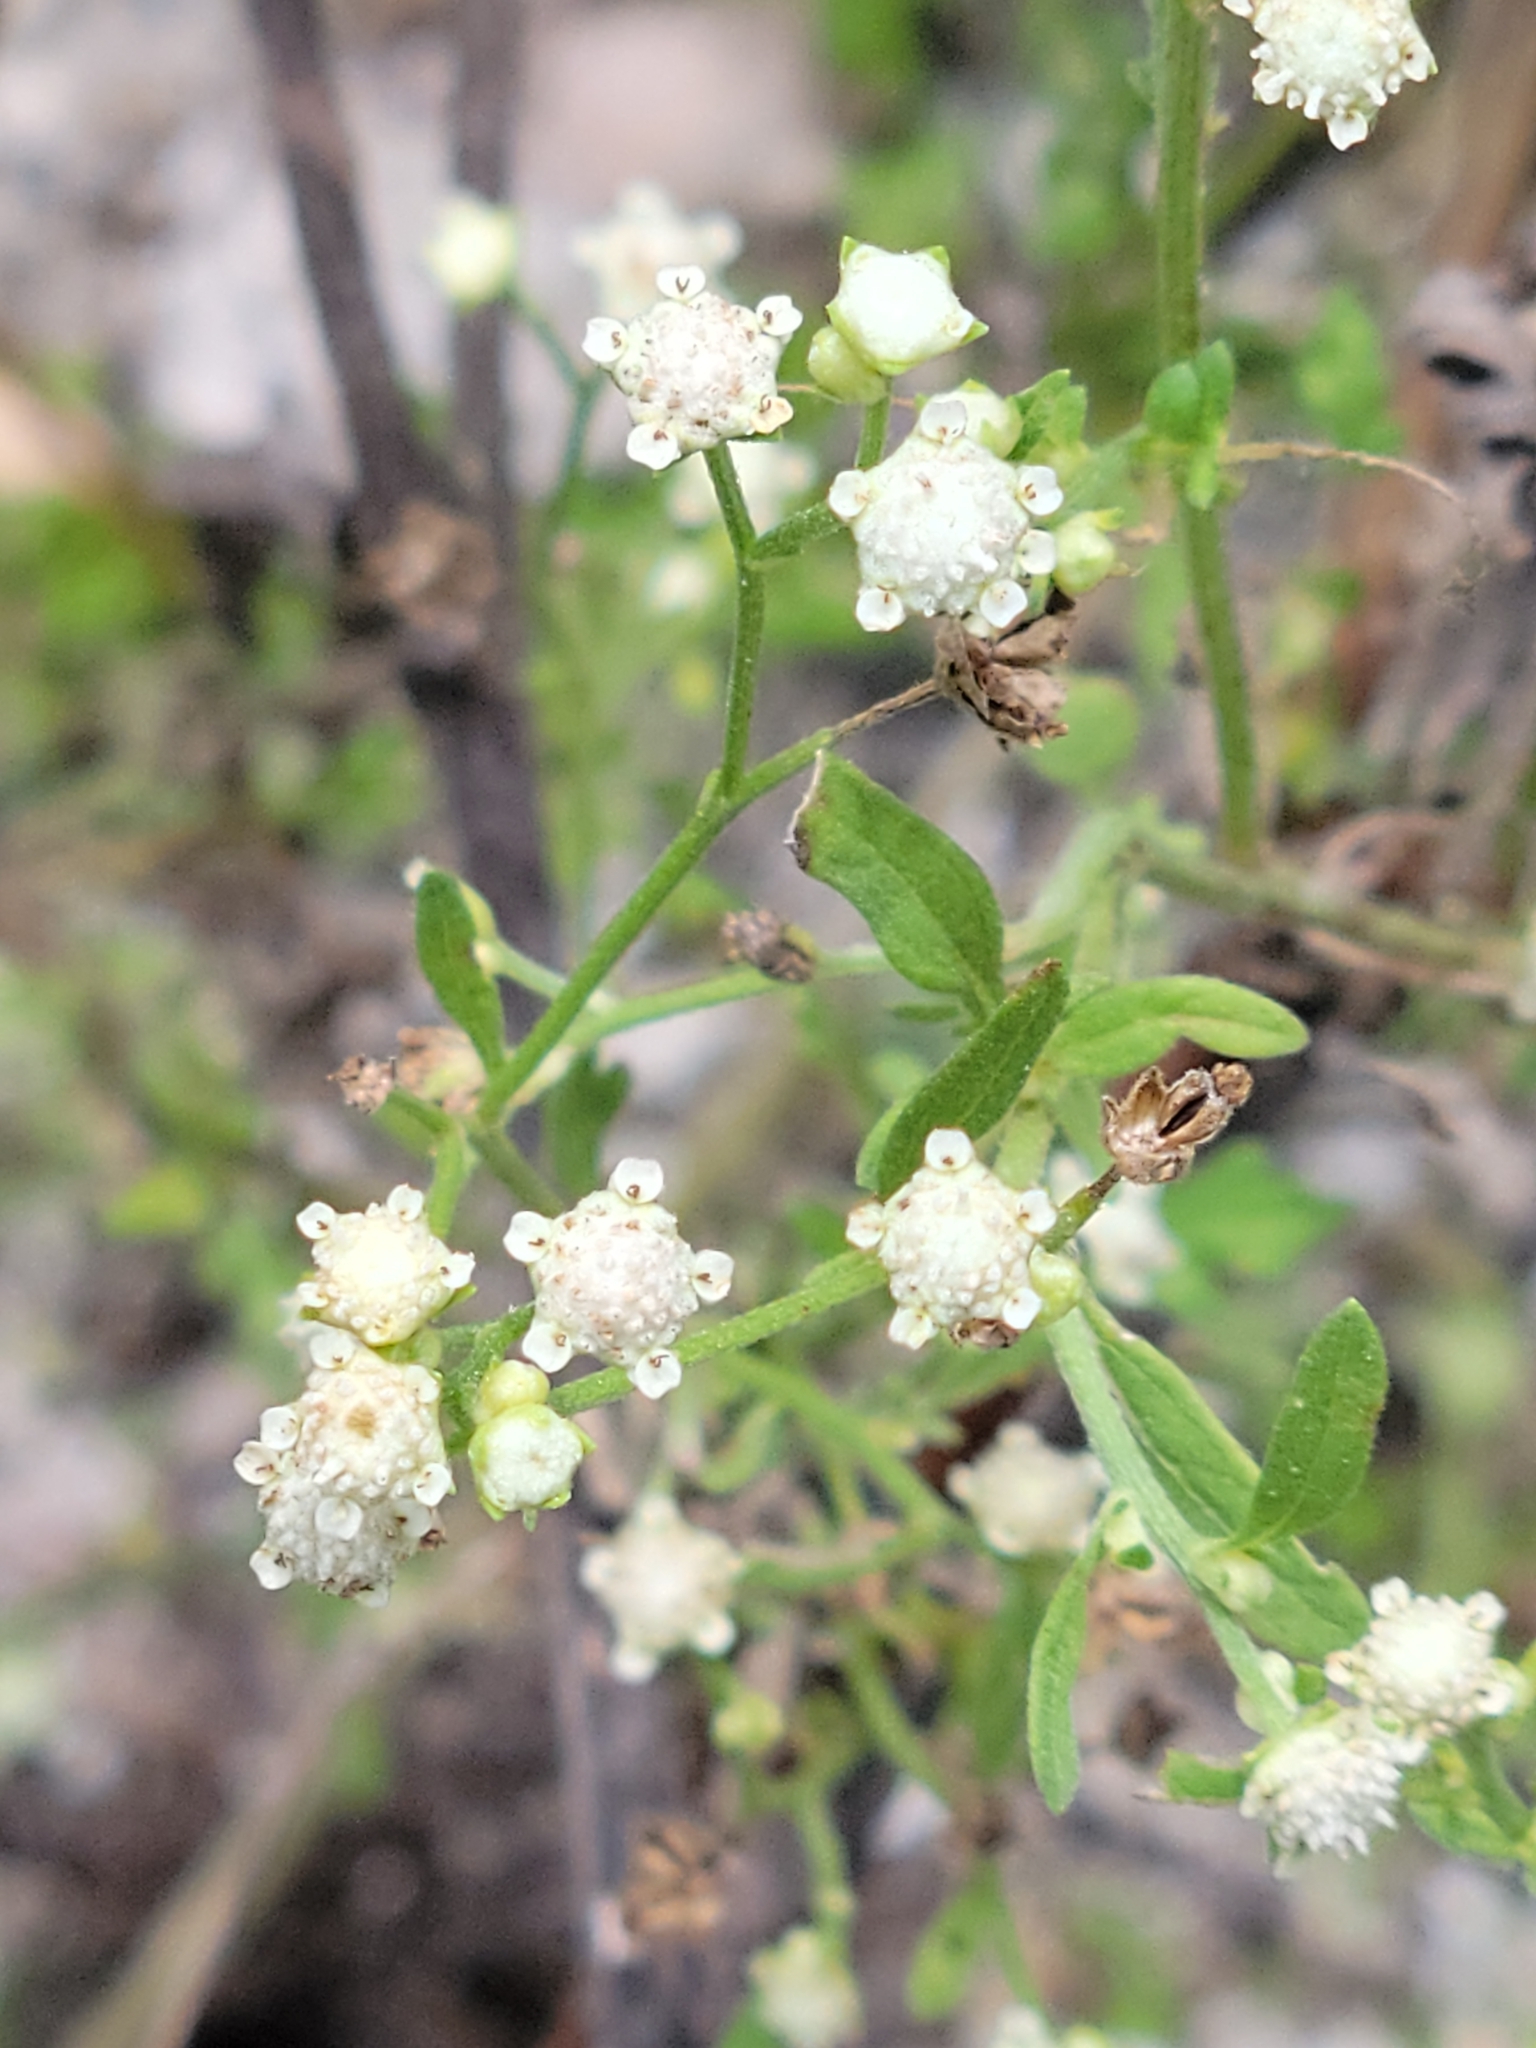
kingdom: Plantae
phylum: Tracheophyta
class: Magnoliopsida
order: Asterales
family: Asteraceae
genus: Parthenium
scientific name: Parthenium hysterophorus
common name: Santa maria feverfew
